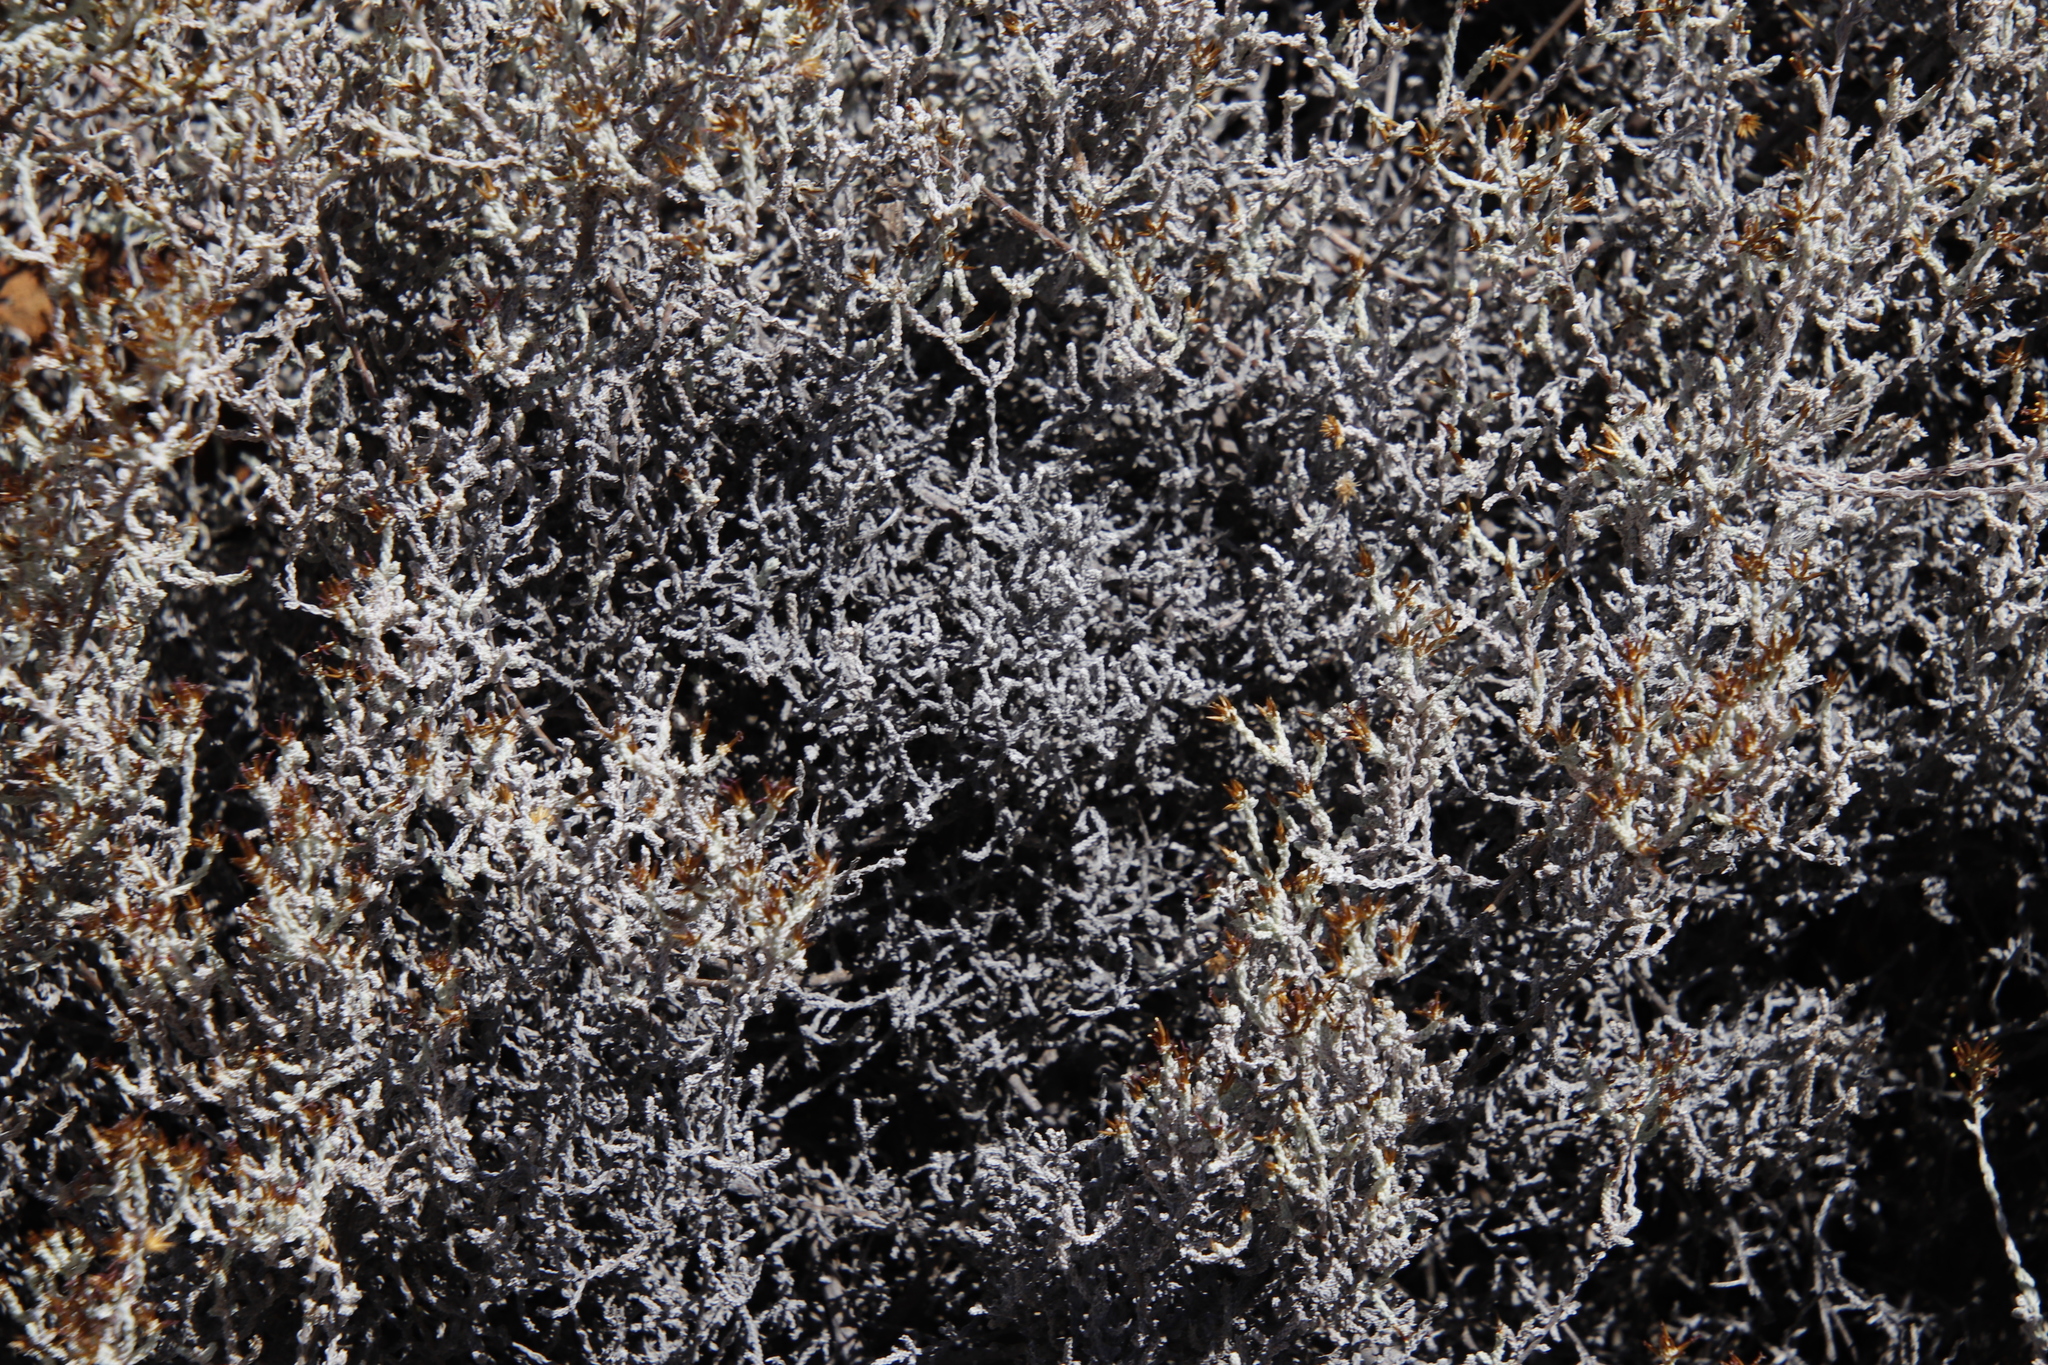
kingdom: Plantae
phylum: Tracheophyta
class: Magnoliopsida
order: Asterales
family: Asteraceae
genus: Seriphium
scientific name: Seriphium plumosum
